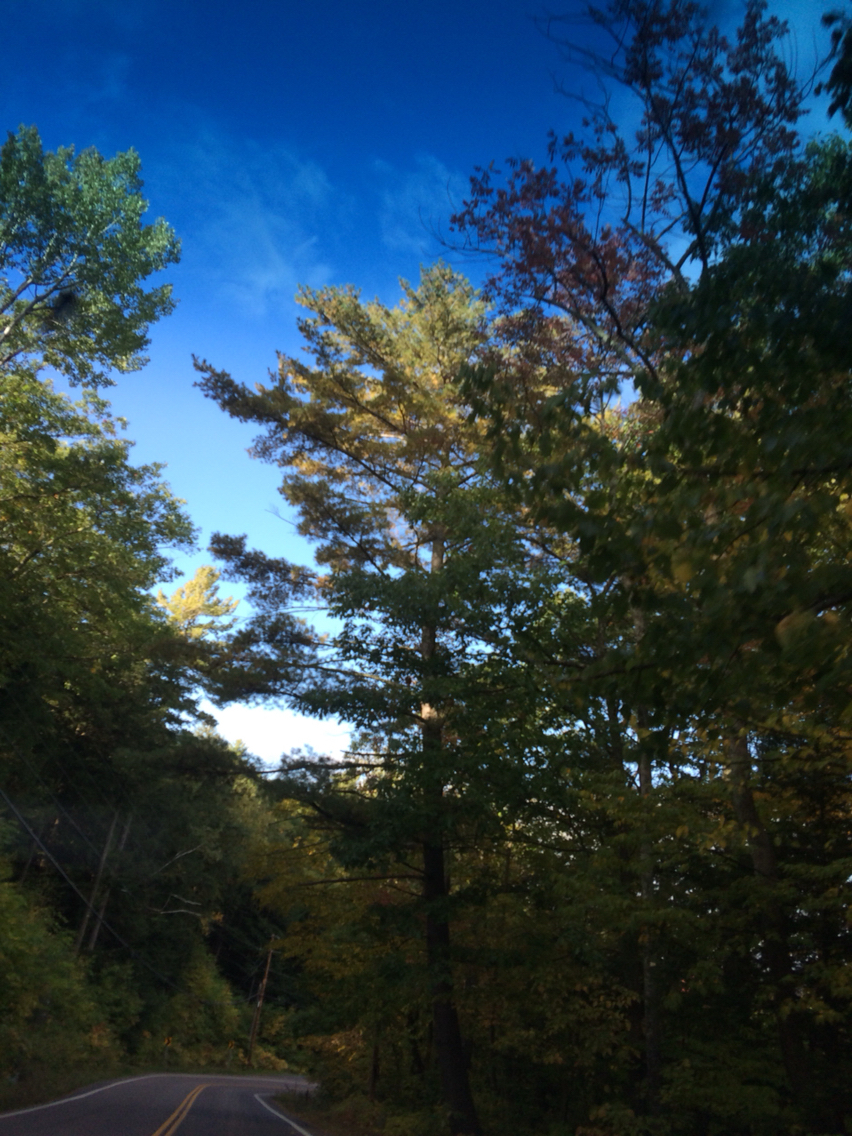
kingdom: Plantae
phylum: Tracheophyta
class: Pinopsida
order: Pinales
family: Pinaceae
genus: Pinus
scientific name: Pinus strobus
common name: Weymouth pine
